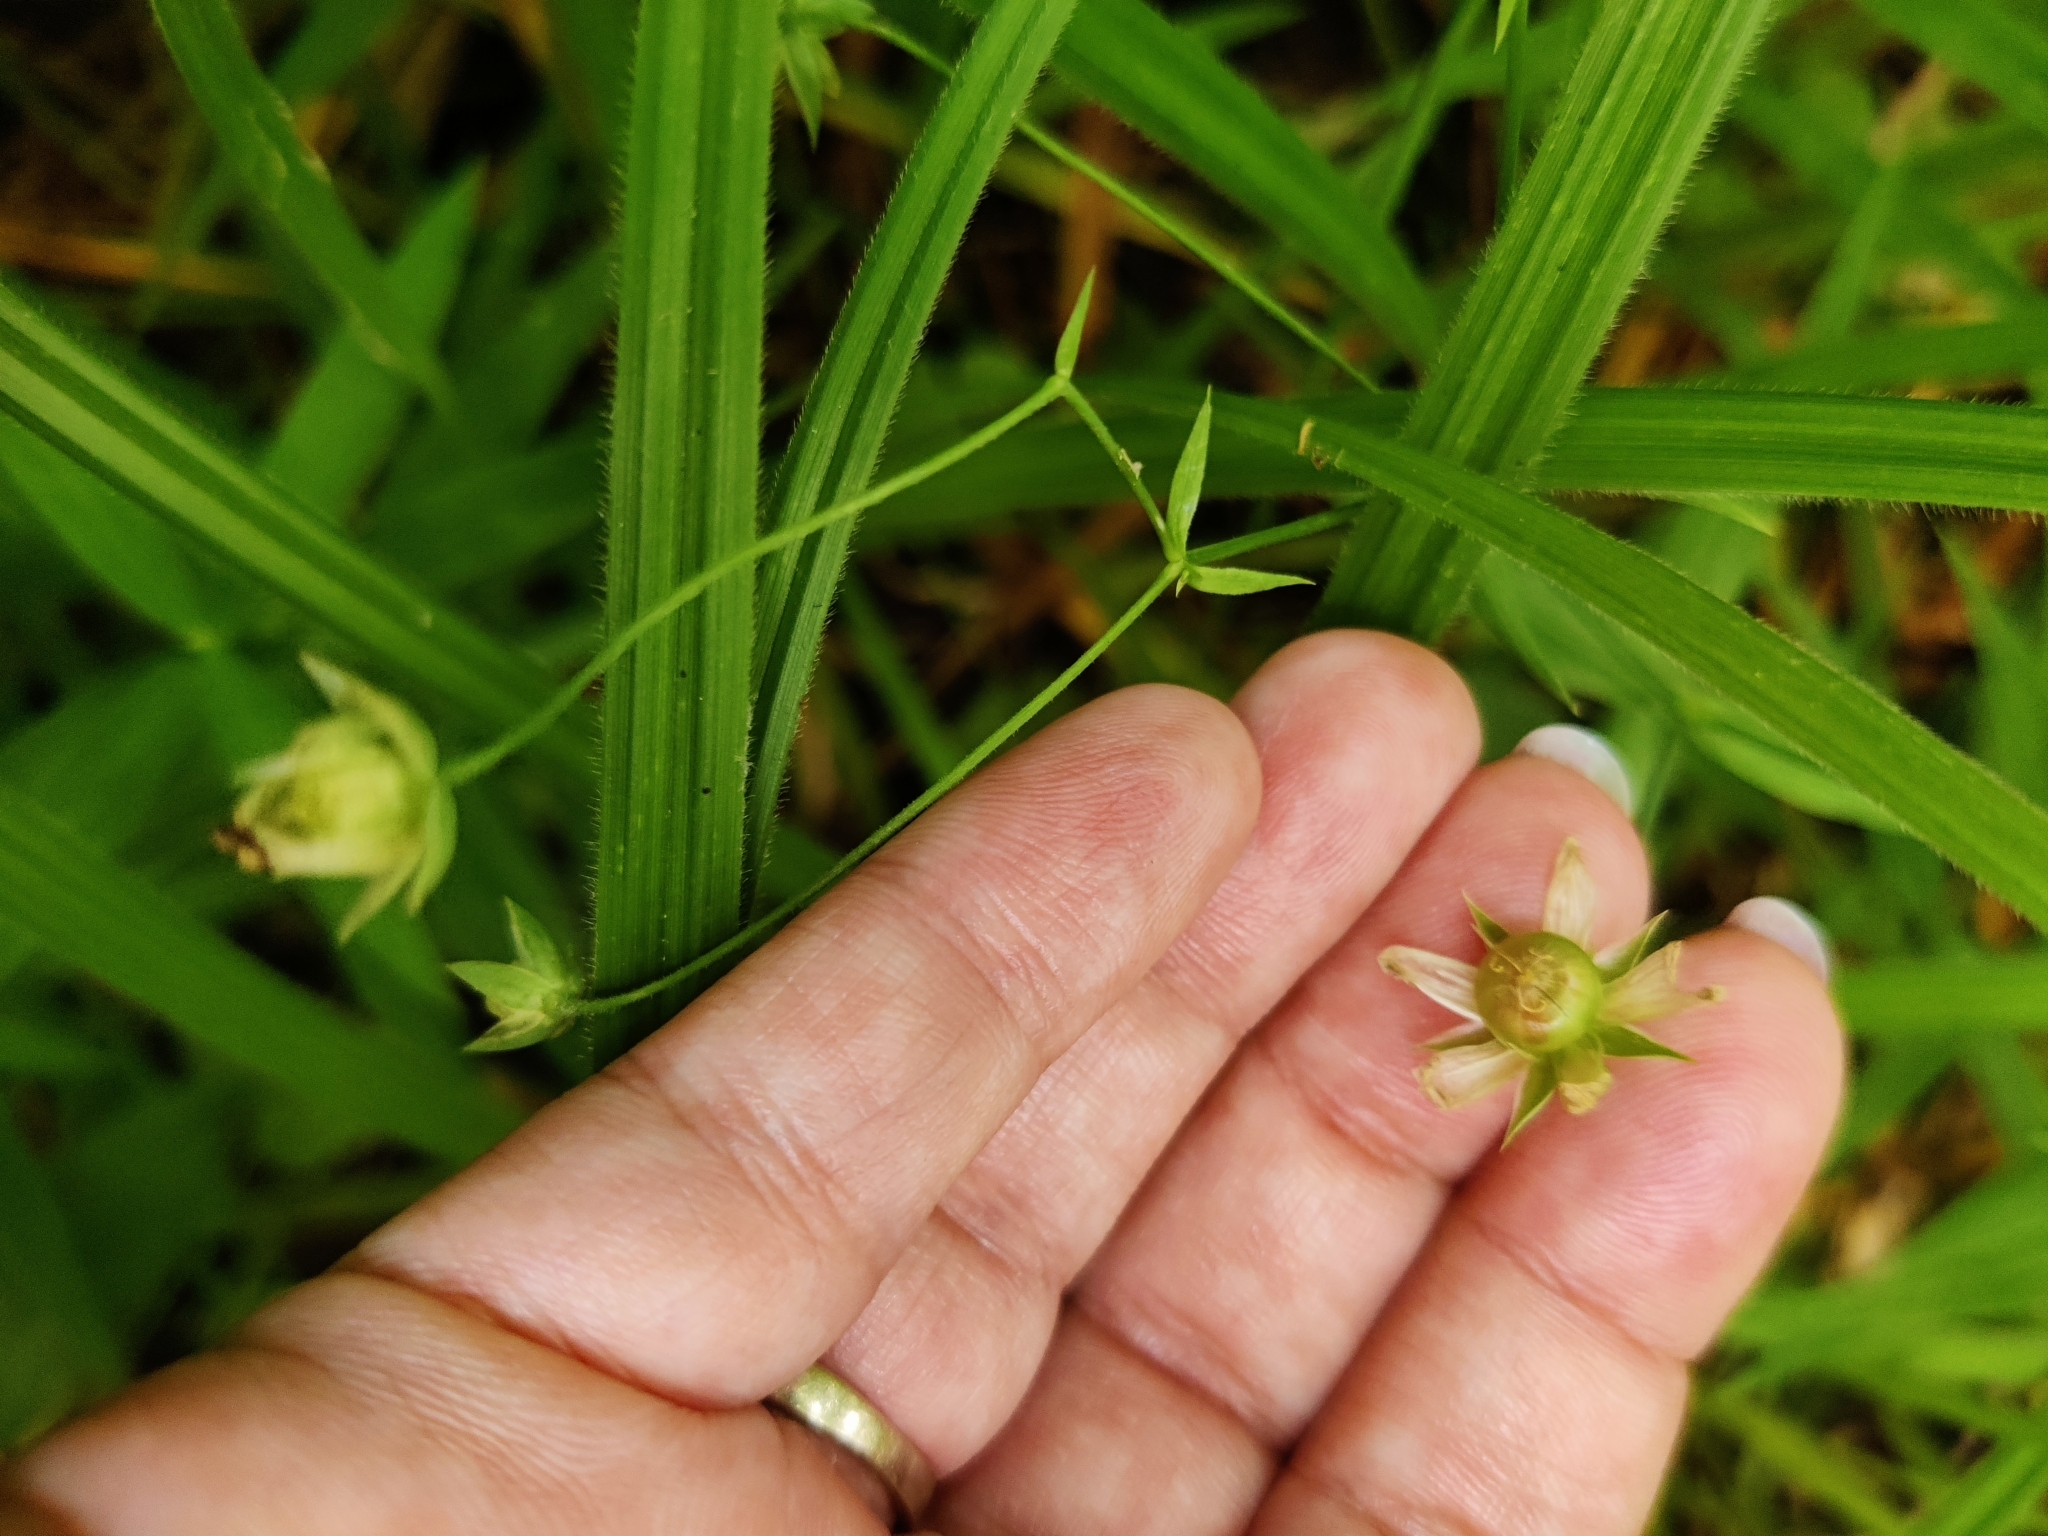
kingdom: Plantae
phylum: Tracheophyta
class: Magnoliopsida
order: Caryophyllales
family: Caryophyllaceae
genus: Rabelera
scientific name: Rabelera holostea
